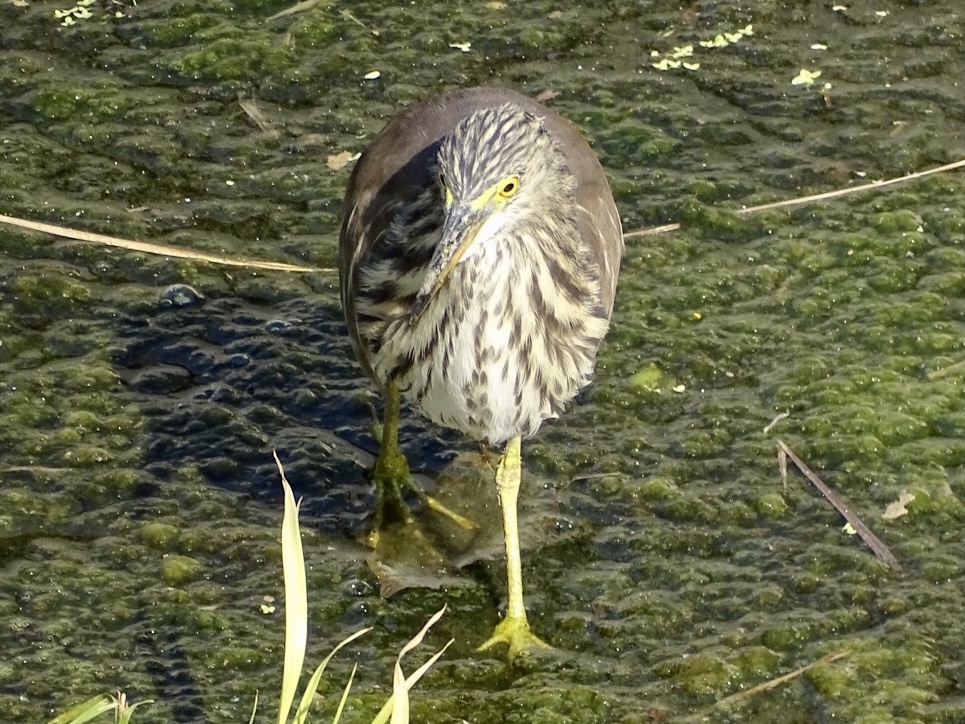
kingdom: Animalia
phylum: Chordata
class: Aves
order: Pelecaniformes
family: Ardeidae
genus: Ardeola
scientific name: Ardeola bacchus
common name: Chinese pond heron
